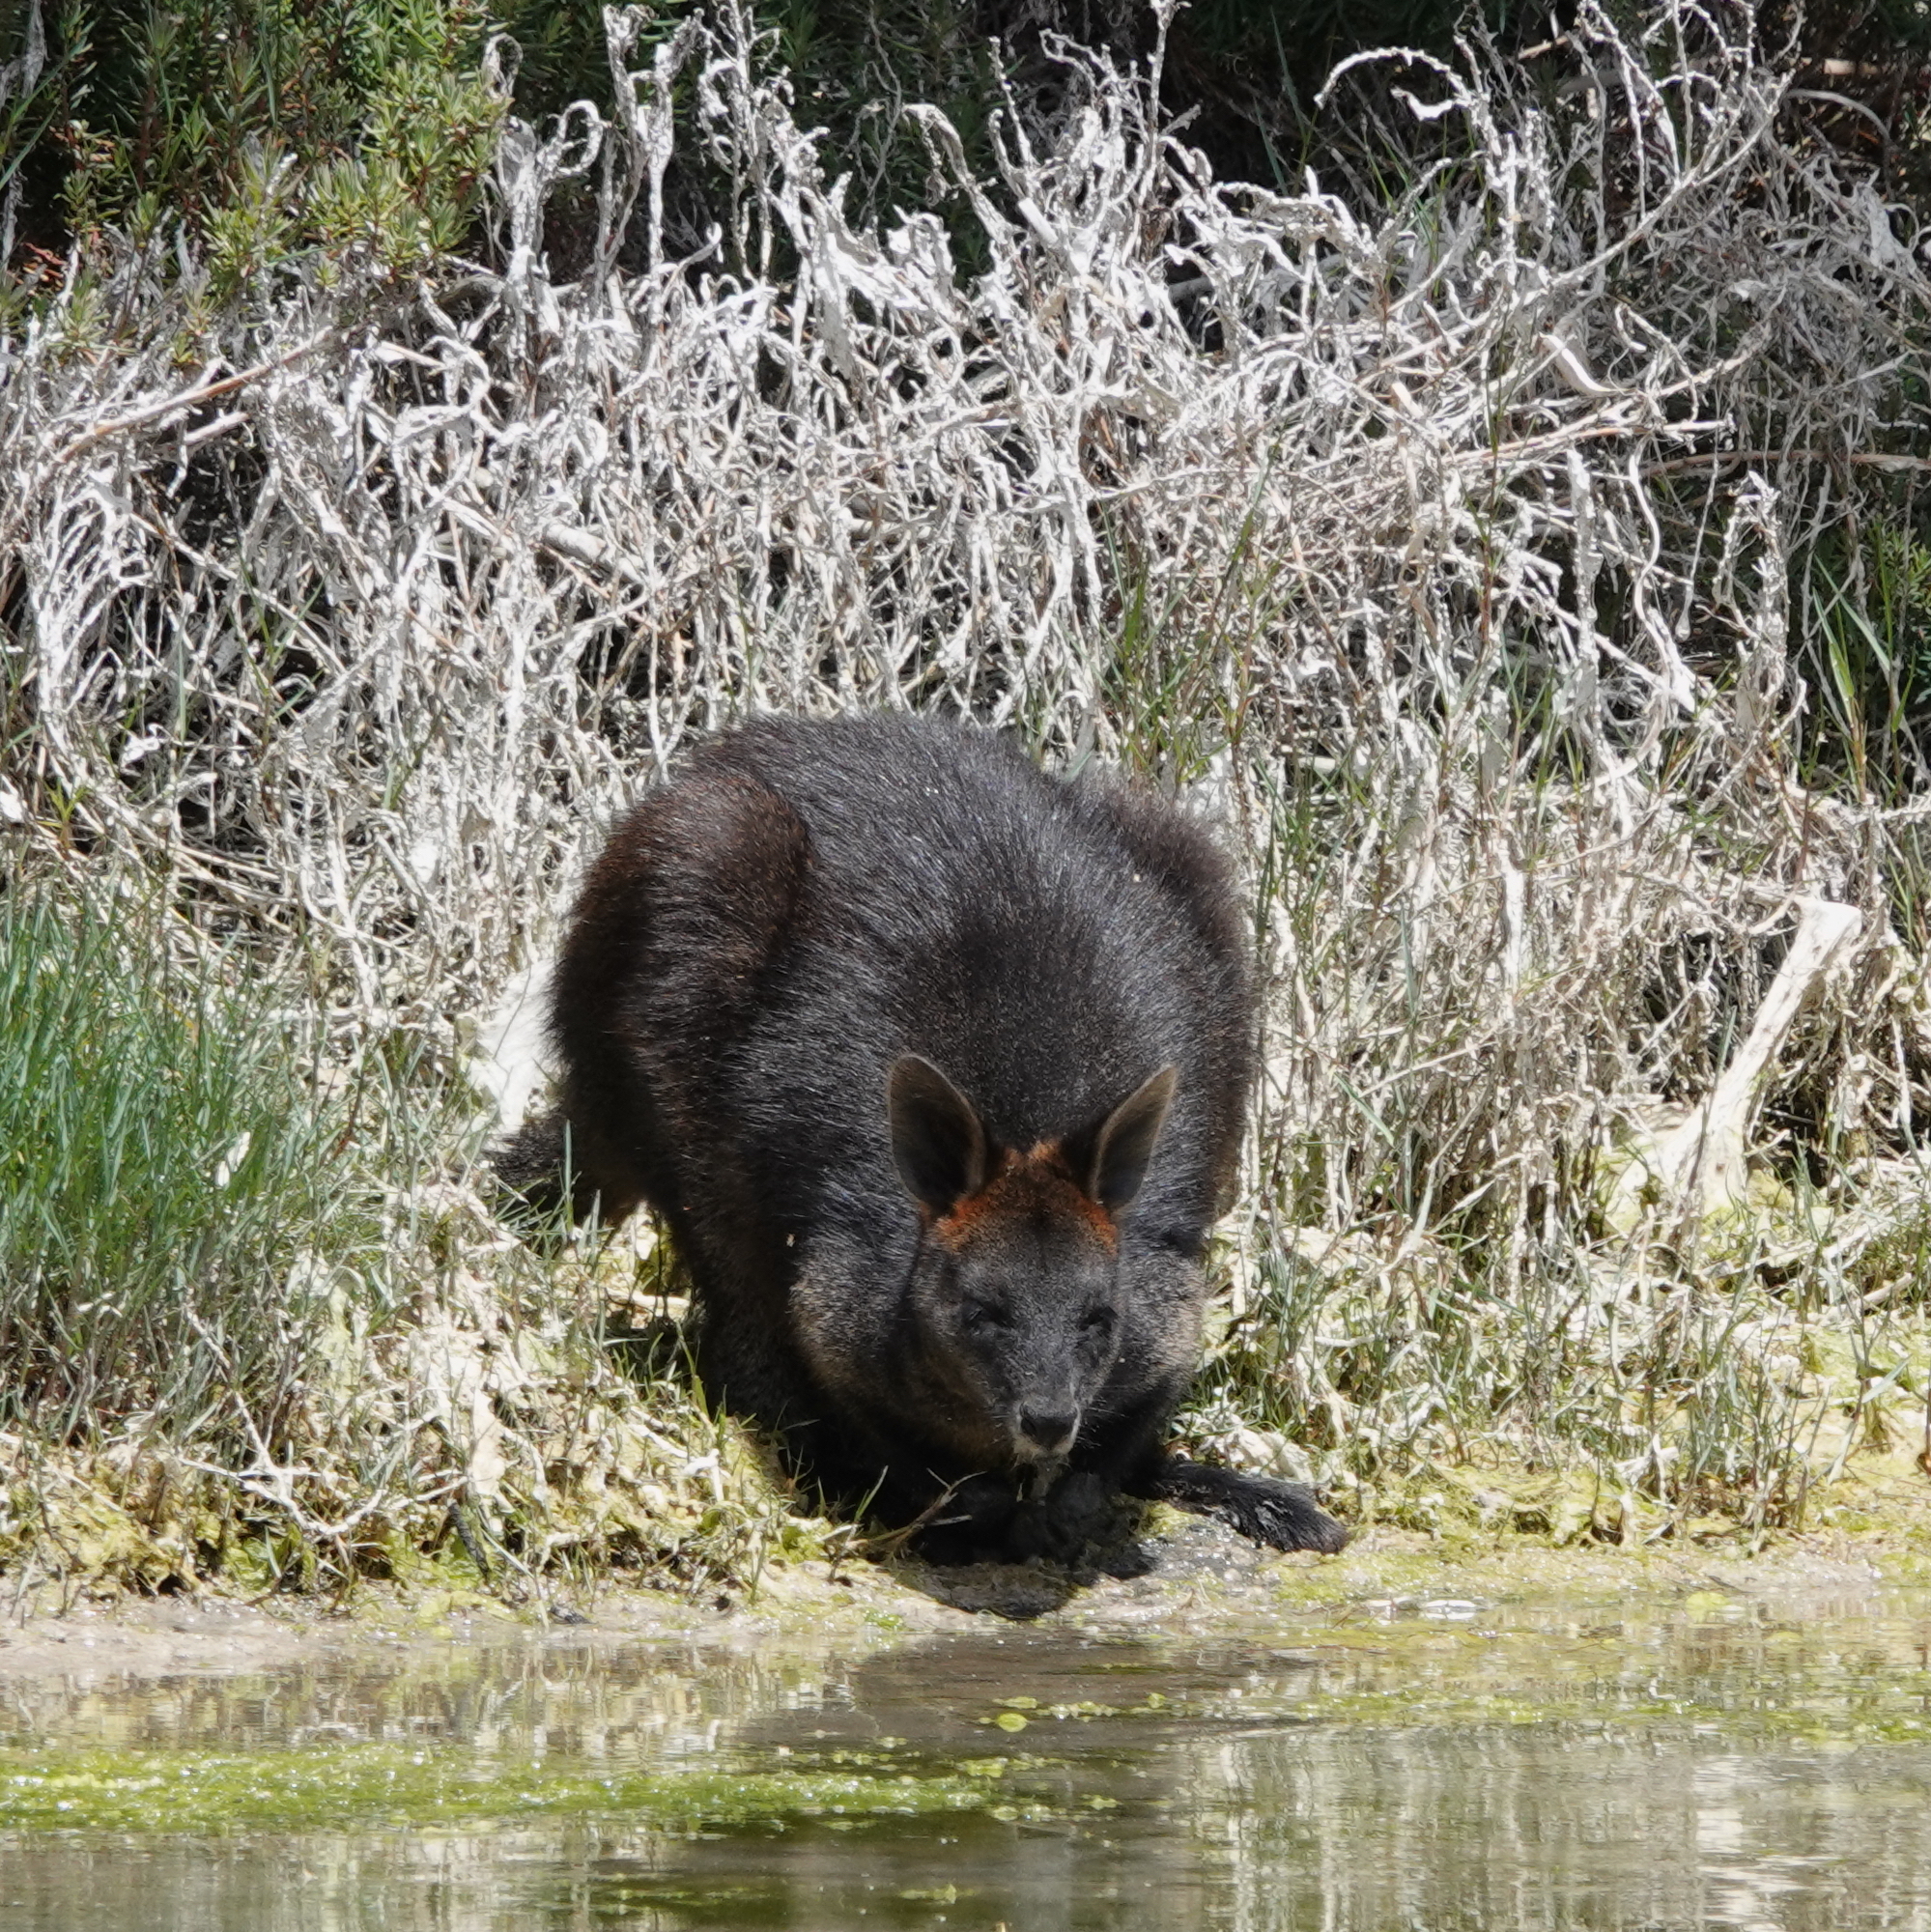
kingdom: Animalia
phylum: Chordata
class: Mammalia
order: Diprotodontia
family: Macropodidae
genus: Wallabia
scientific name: Wallabia bicolor
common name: Swamp wallaby
